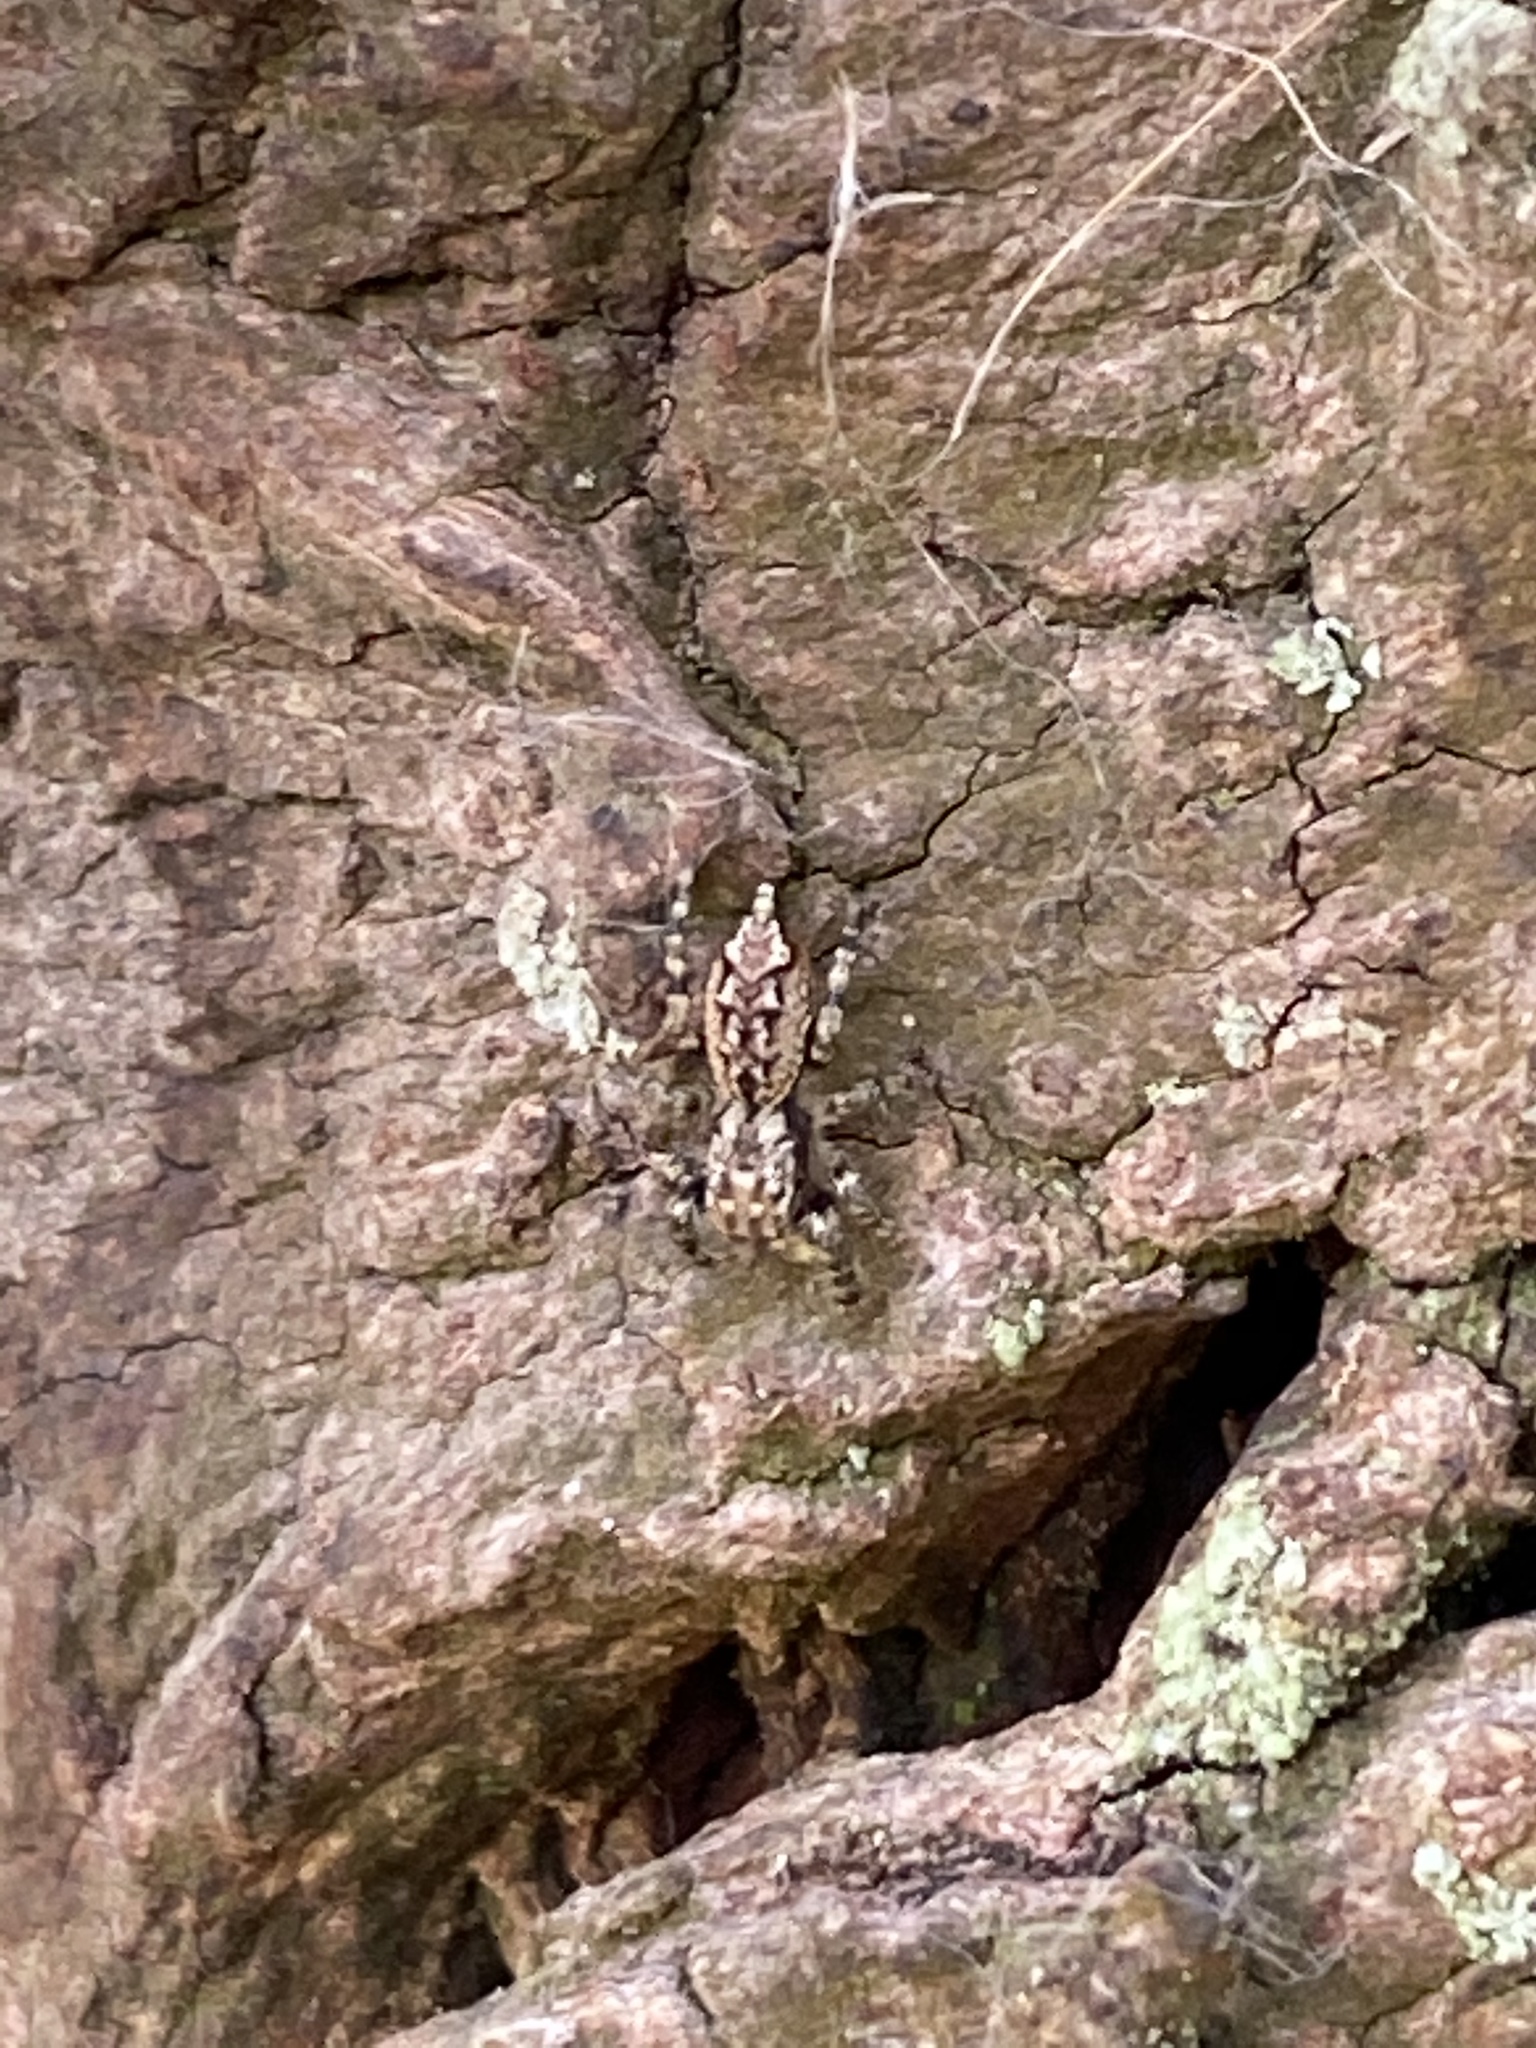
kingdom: Animalia
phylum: Arthropoda
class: Arachnida
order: Araneae
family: Salticidae
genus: Marpissa
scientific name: Marpissa muscosa
